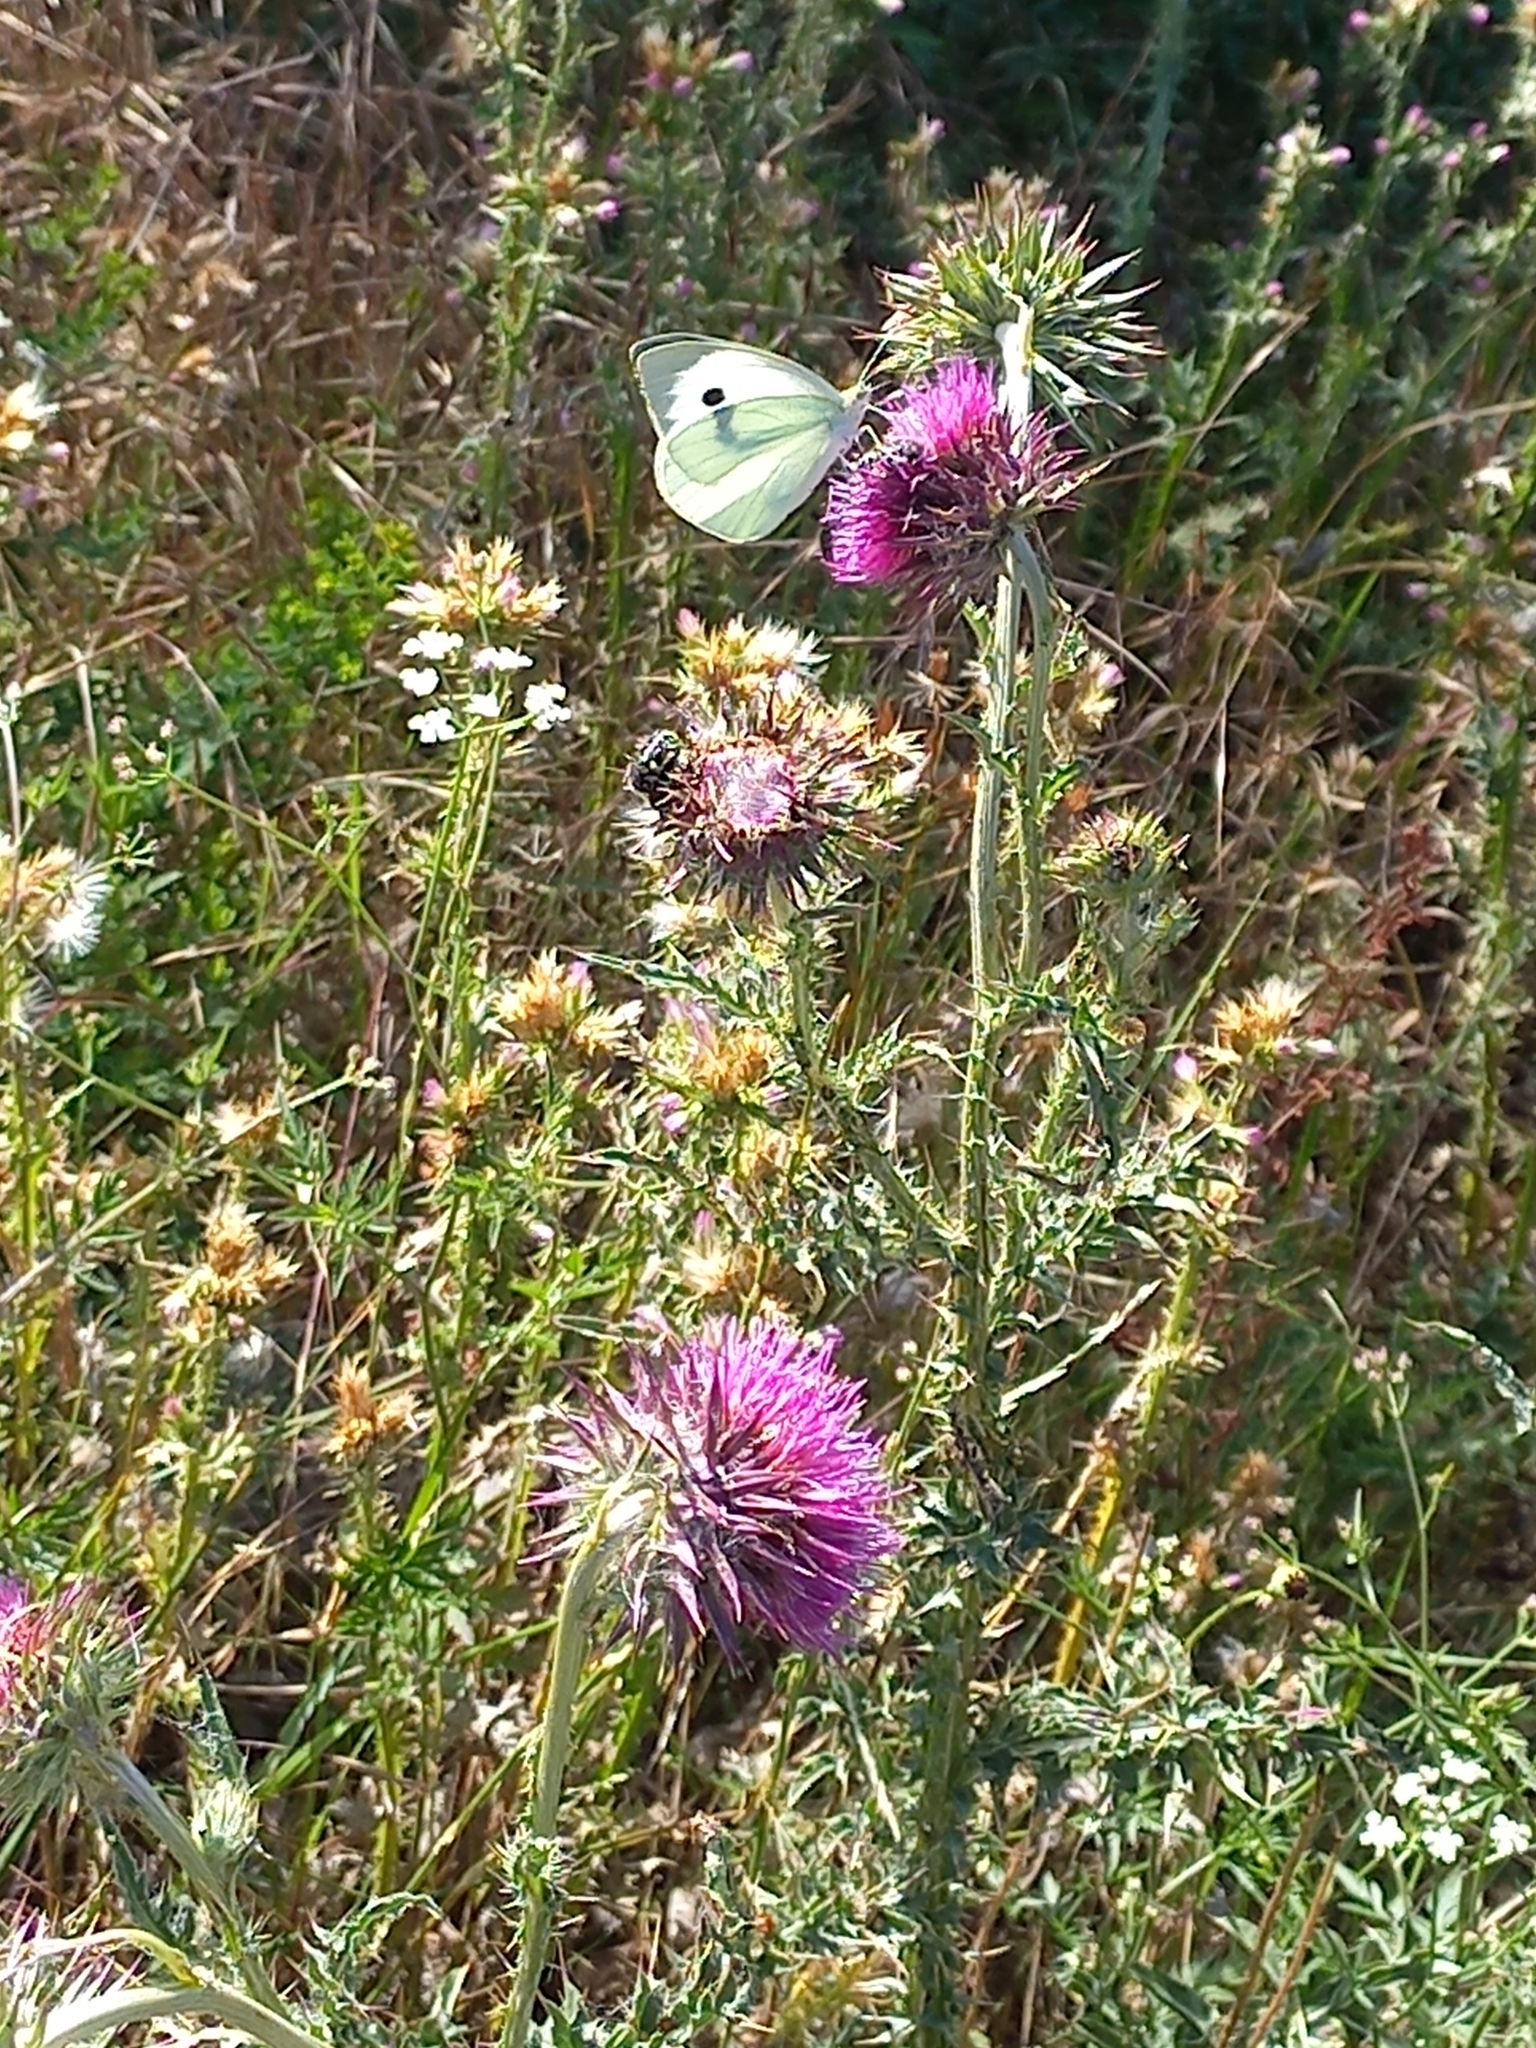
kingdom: Animalia
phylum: Arthropoda
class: Insecta
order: Lepidoptera
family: Pieridae
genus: Pieris
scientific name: Pieris brassicae
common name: Large white
